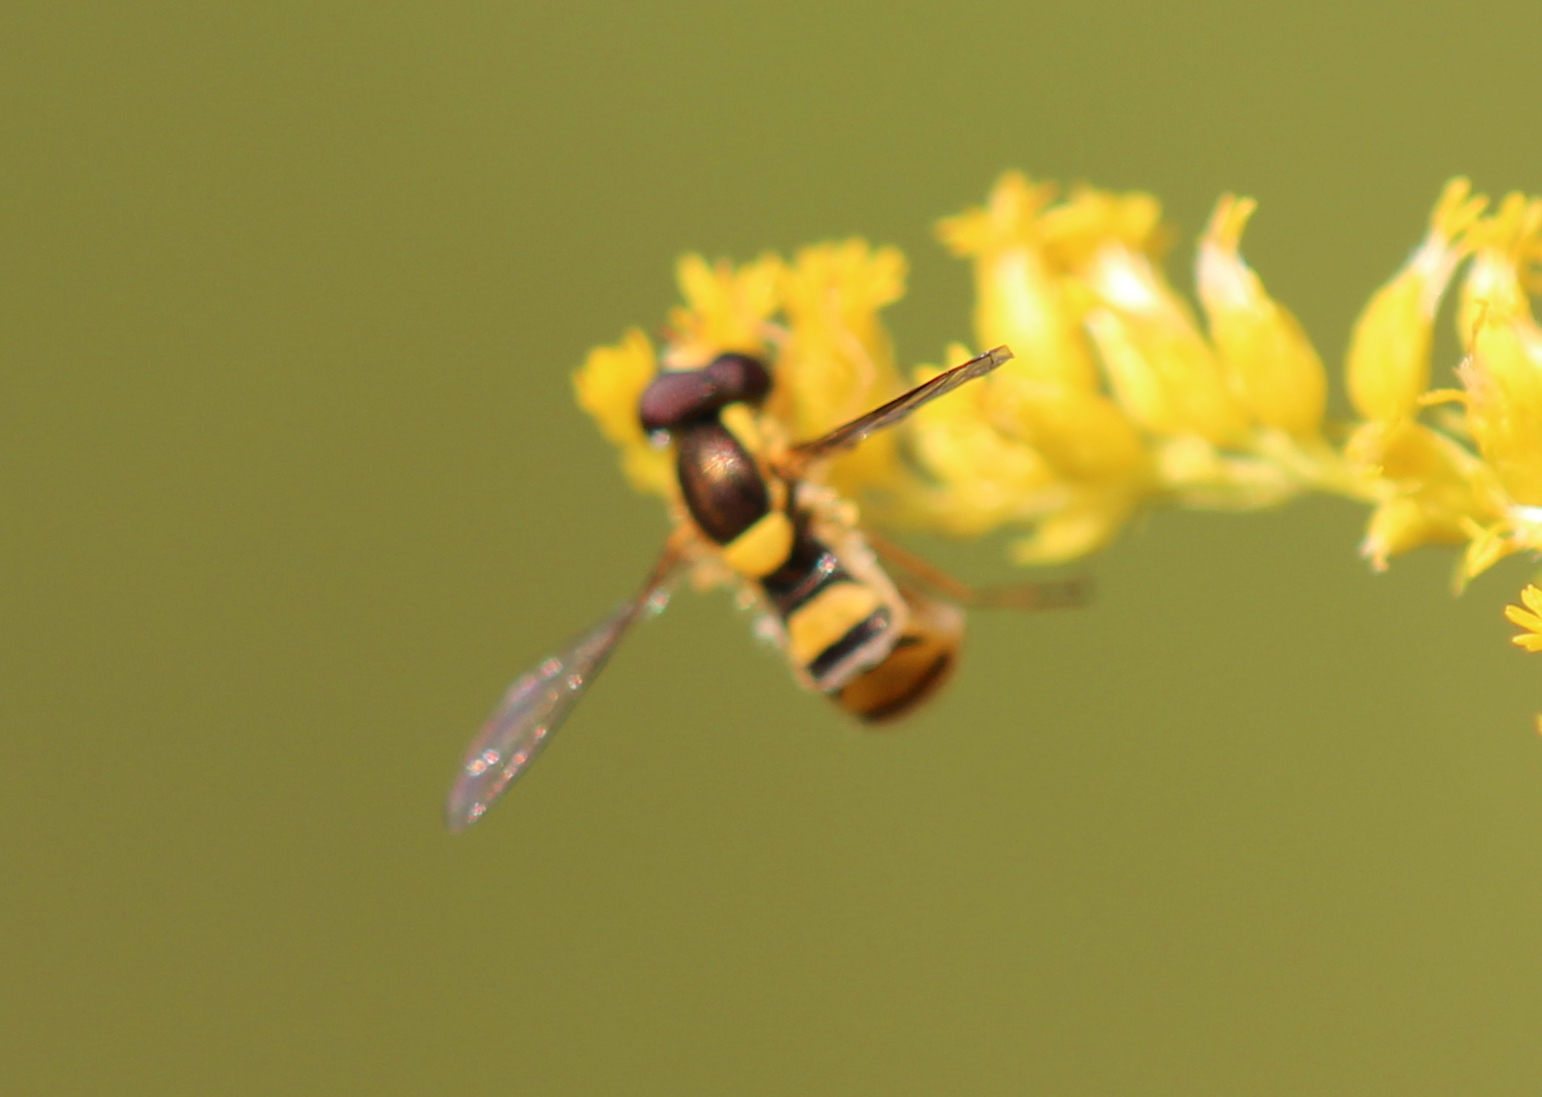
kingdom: Animalia
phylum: Arthropoda
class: Insecta
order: Diptera
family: Syrphidae
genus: Sphaerophoria
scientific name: Sphaerophoria
